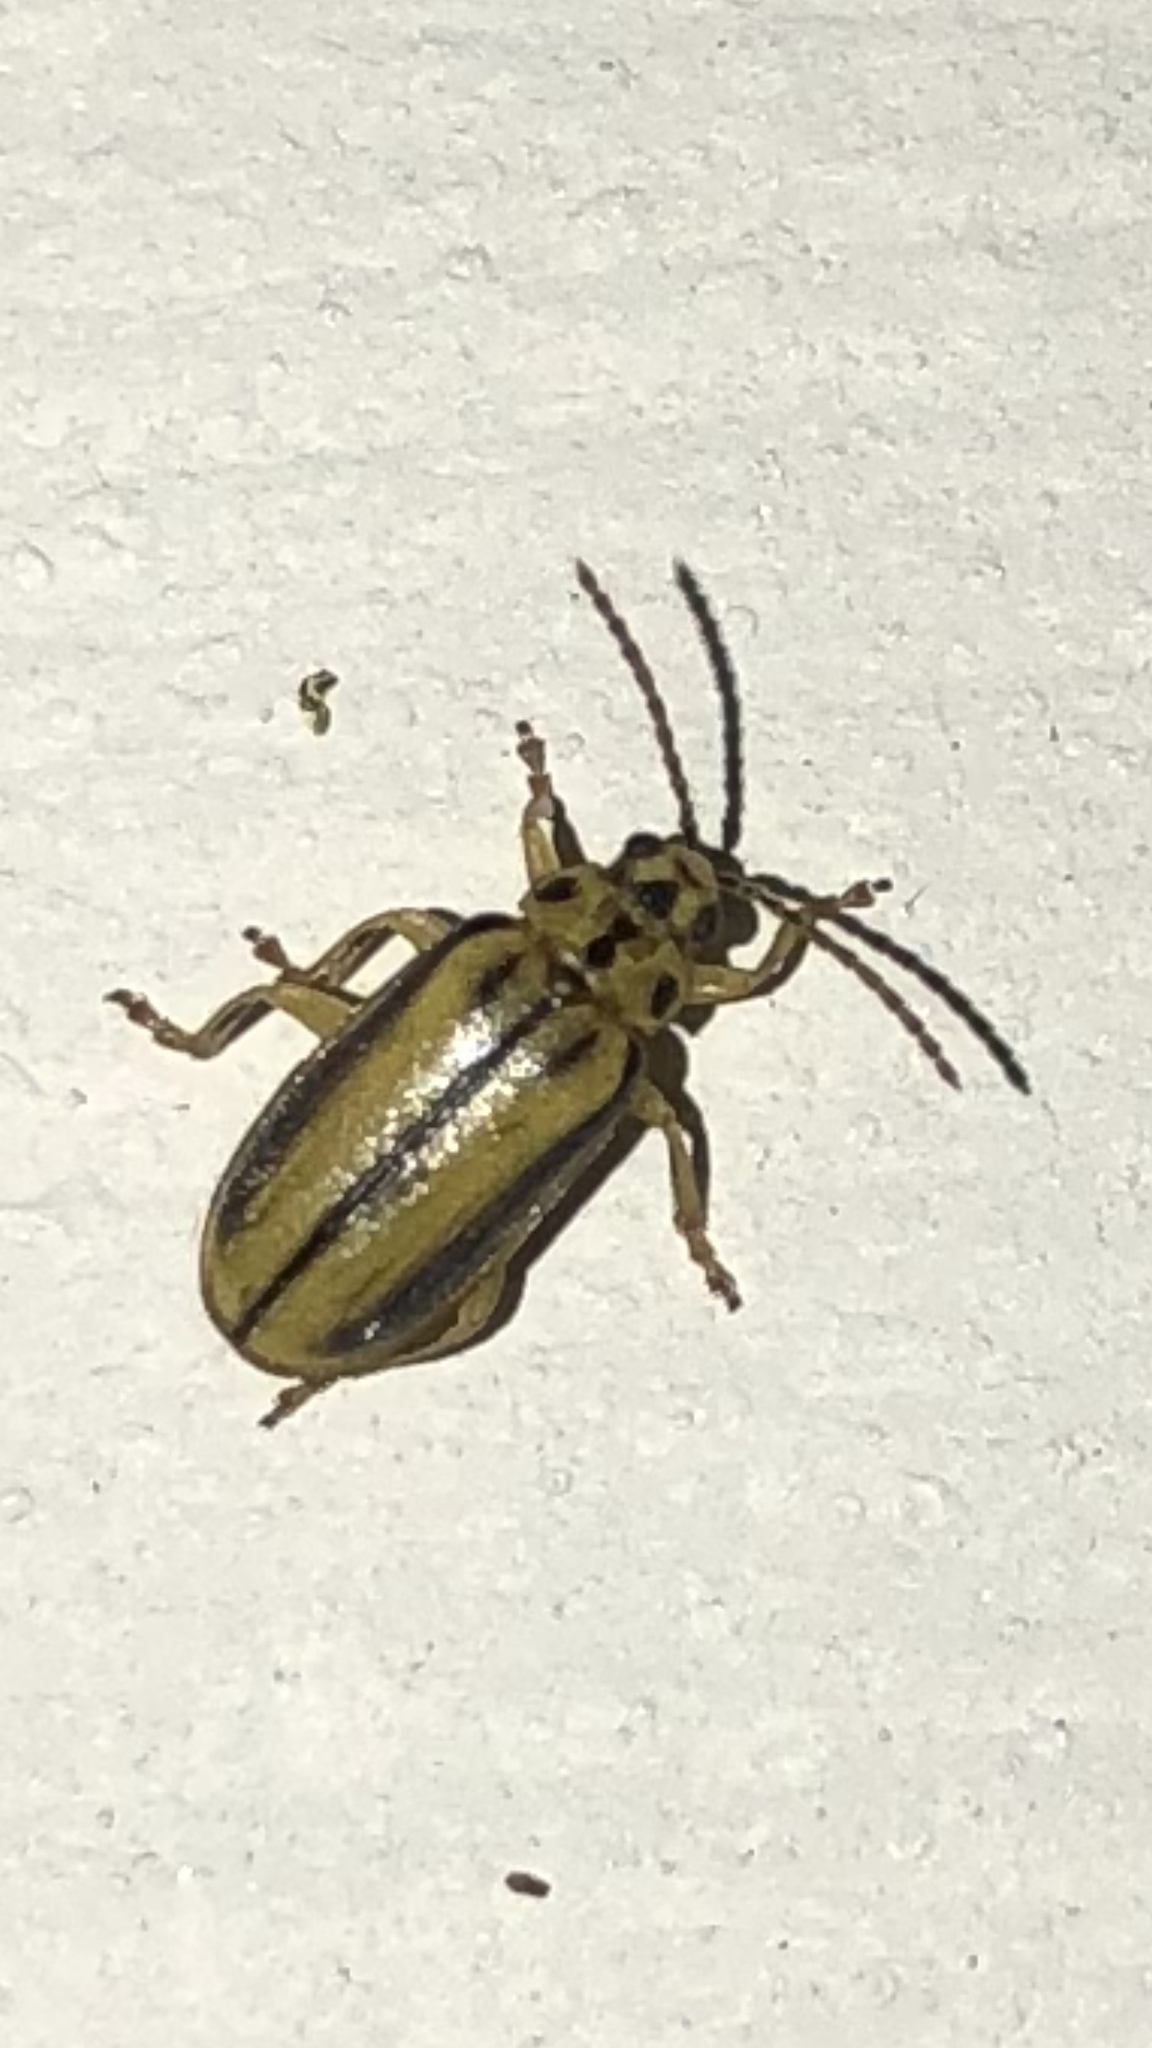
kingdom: Animalia
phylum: Arthropoda
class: Insecta
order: Coleoptera
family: Chrysomelidae
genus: Xanthogaleruca
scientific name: Xanthogaleruca luteola
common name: Elm leaf beetle
